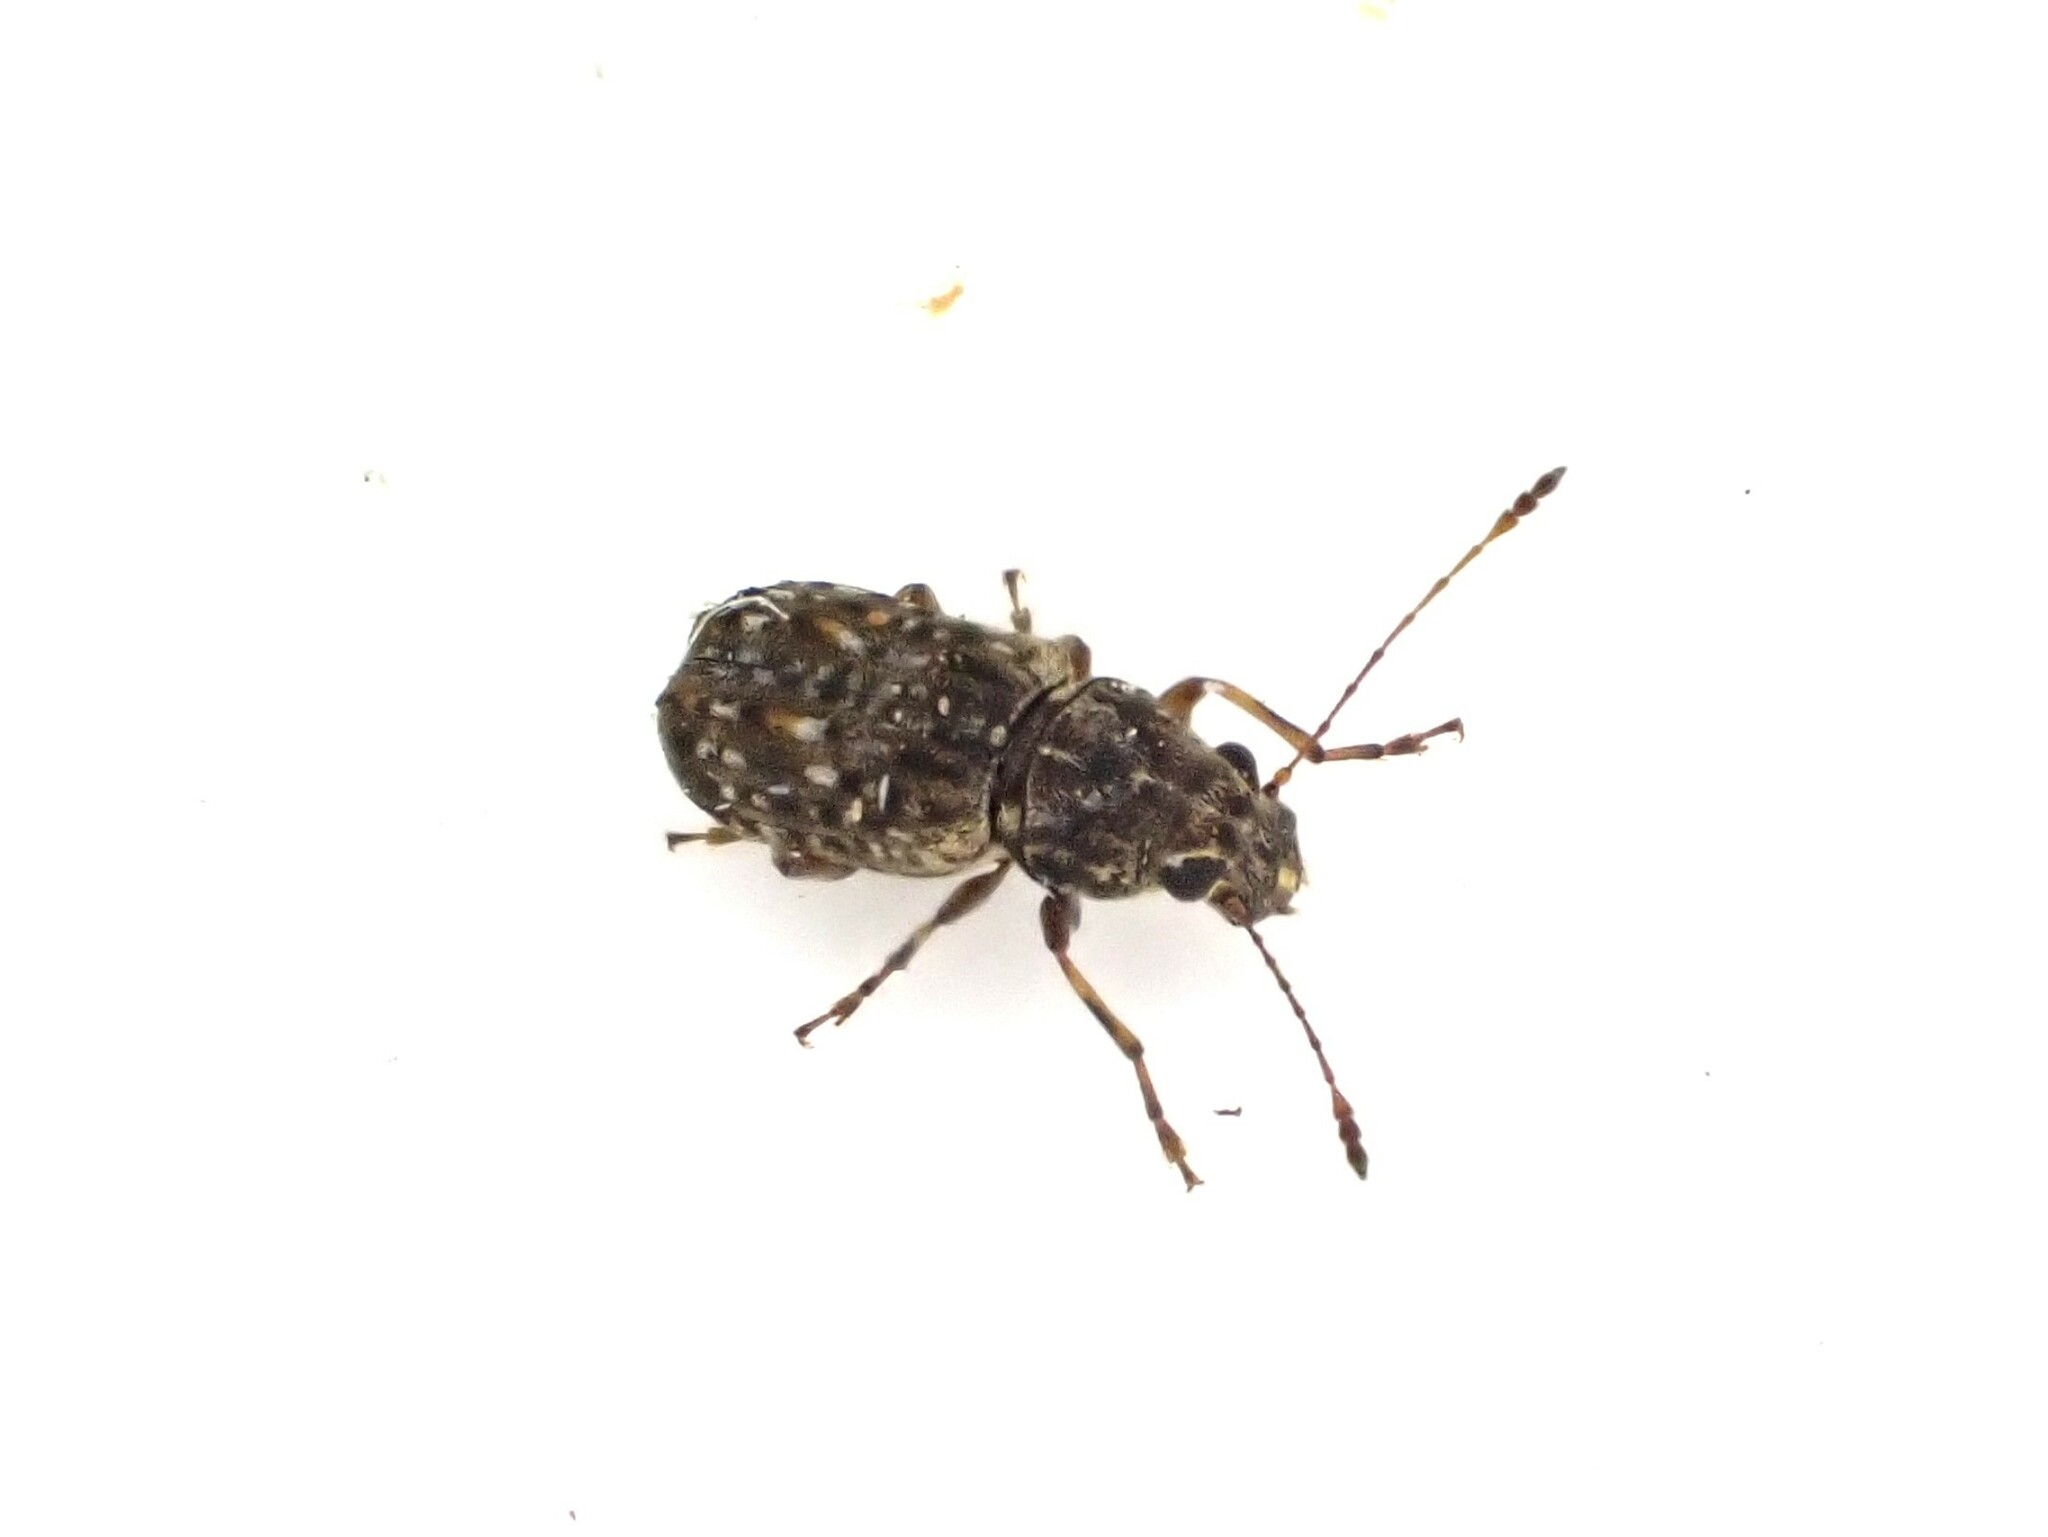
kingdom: Animalia
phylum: Arthropoda
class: Insecta
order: Coleoptera
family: Anthribidae
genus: Phymatus
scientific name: Phymatus
